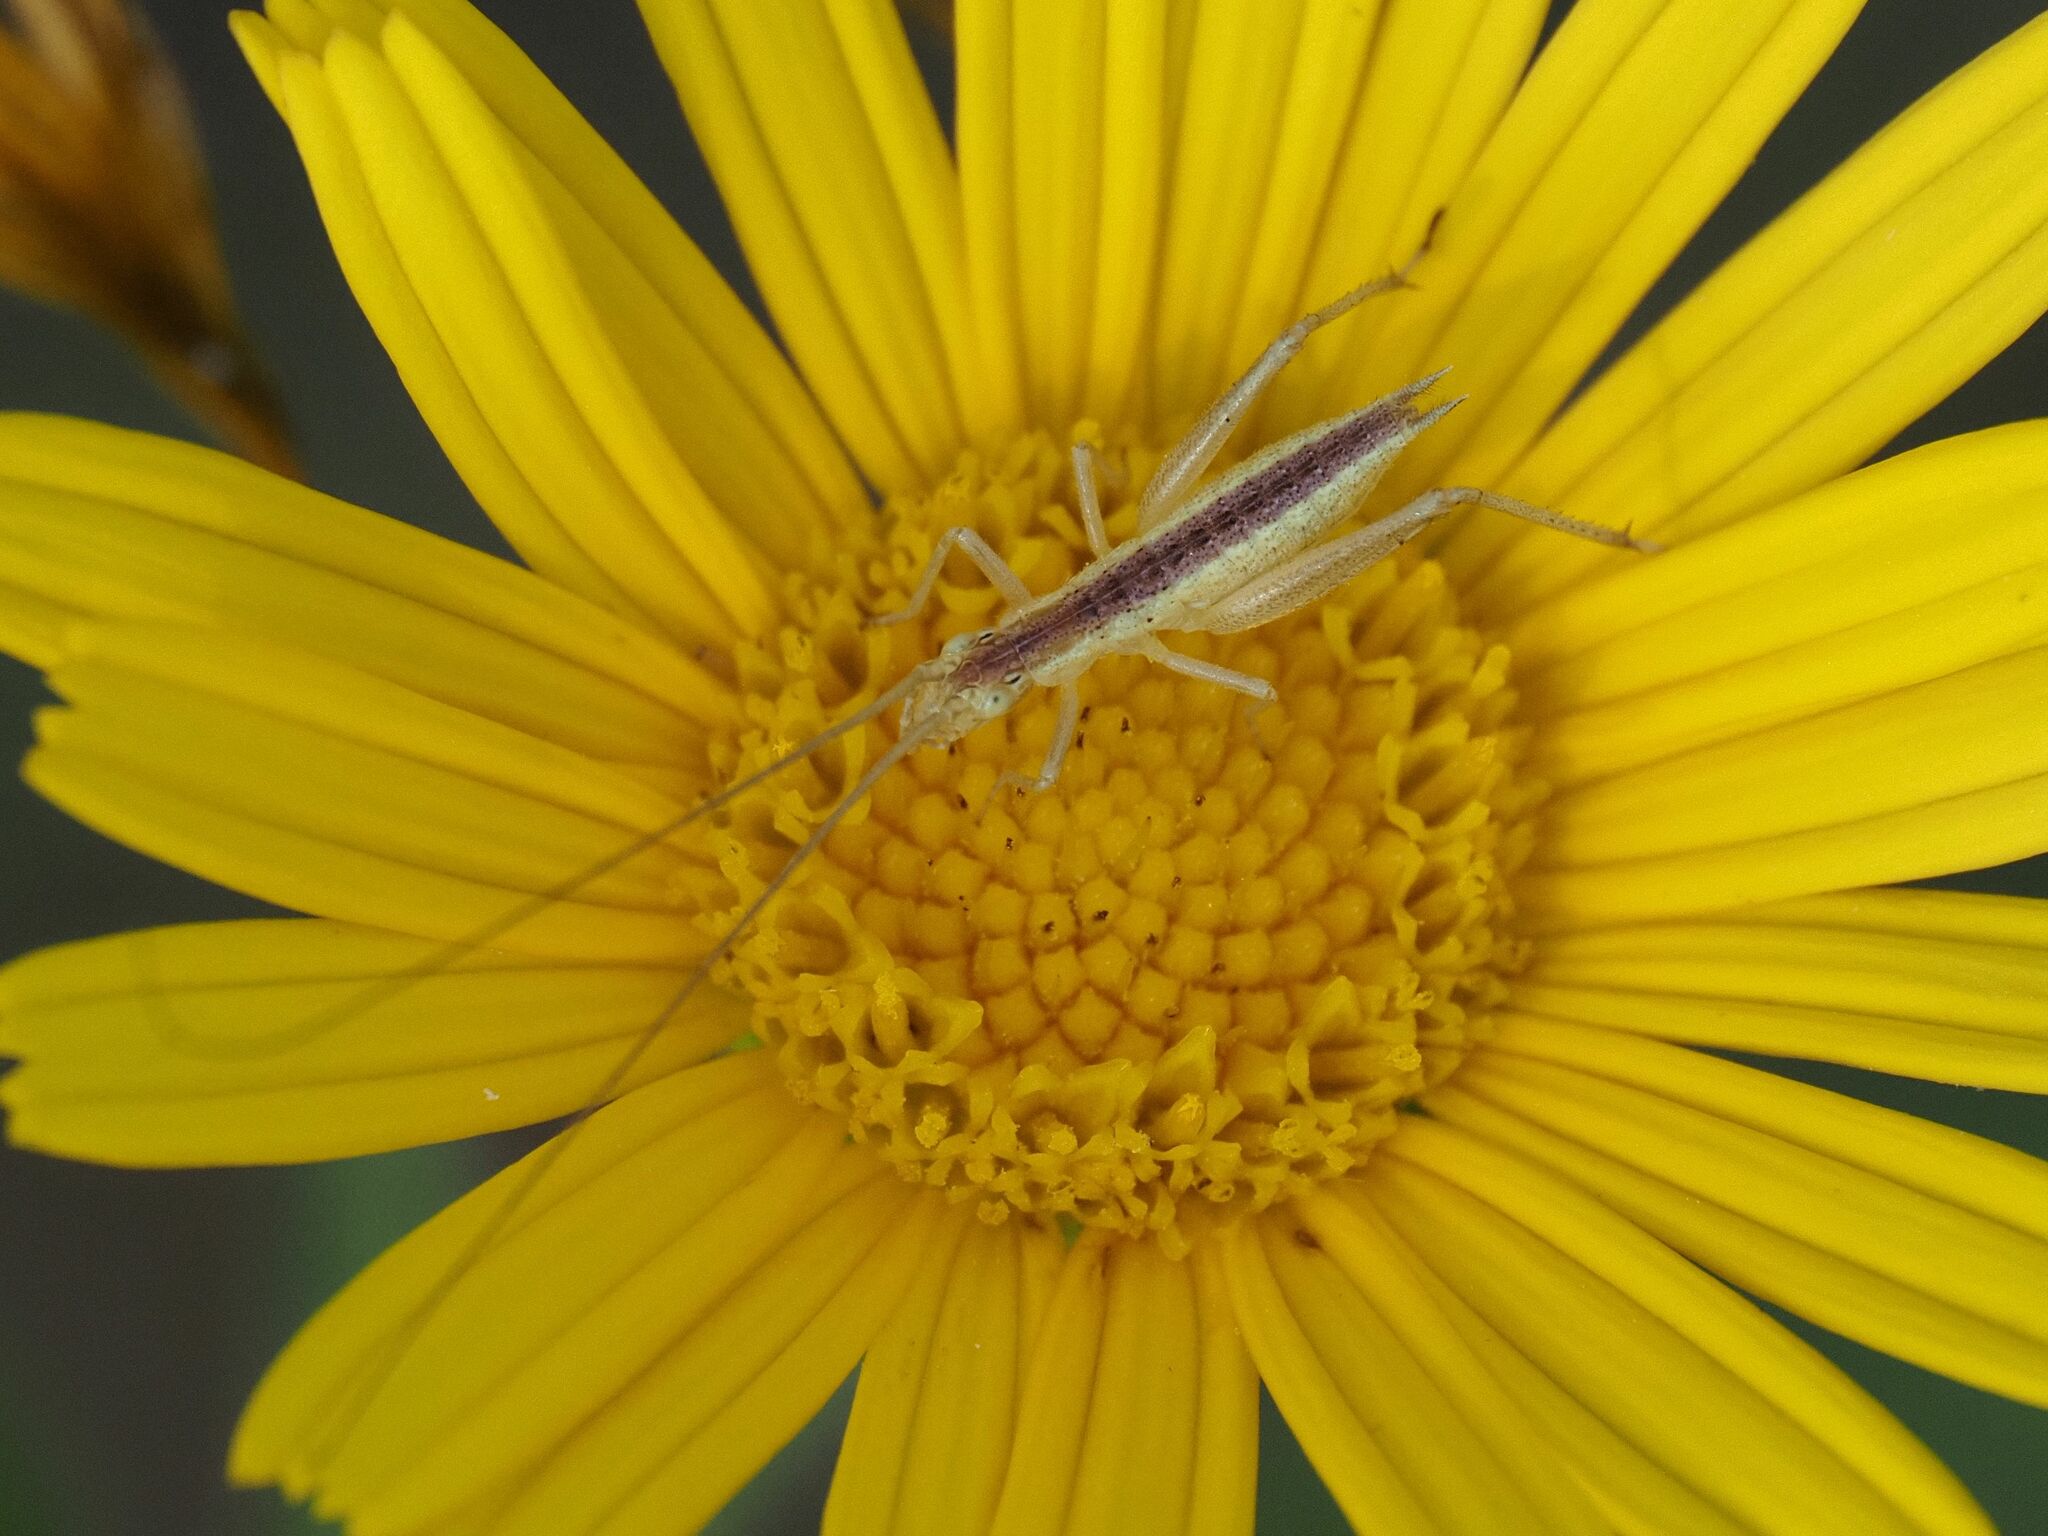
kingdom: Animalia
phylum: Arthropoda
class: Insecta
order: Orthoptera
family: Gryllidae
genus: Oecanthus
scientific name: Oecanthus pellucens
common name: Tree-cricket
